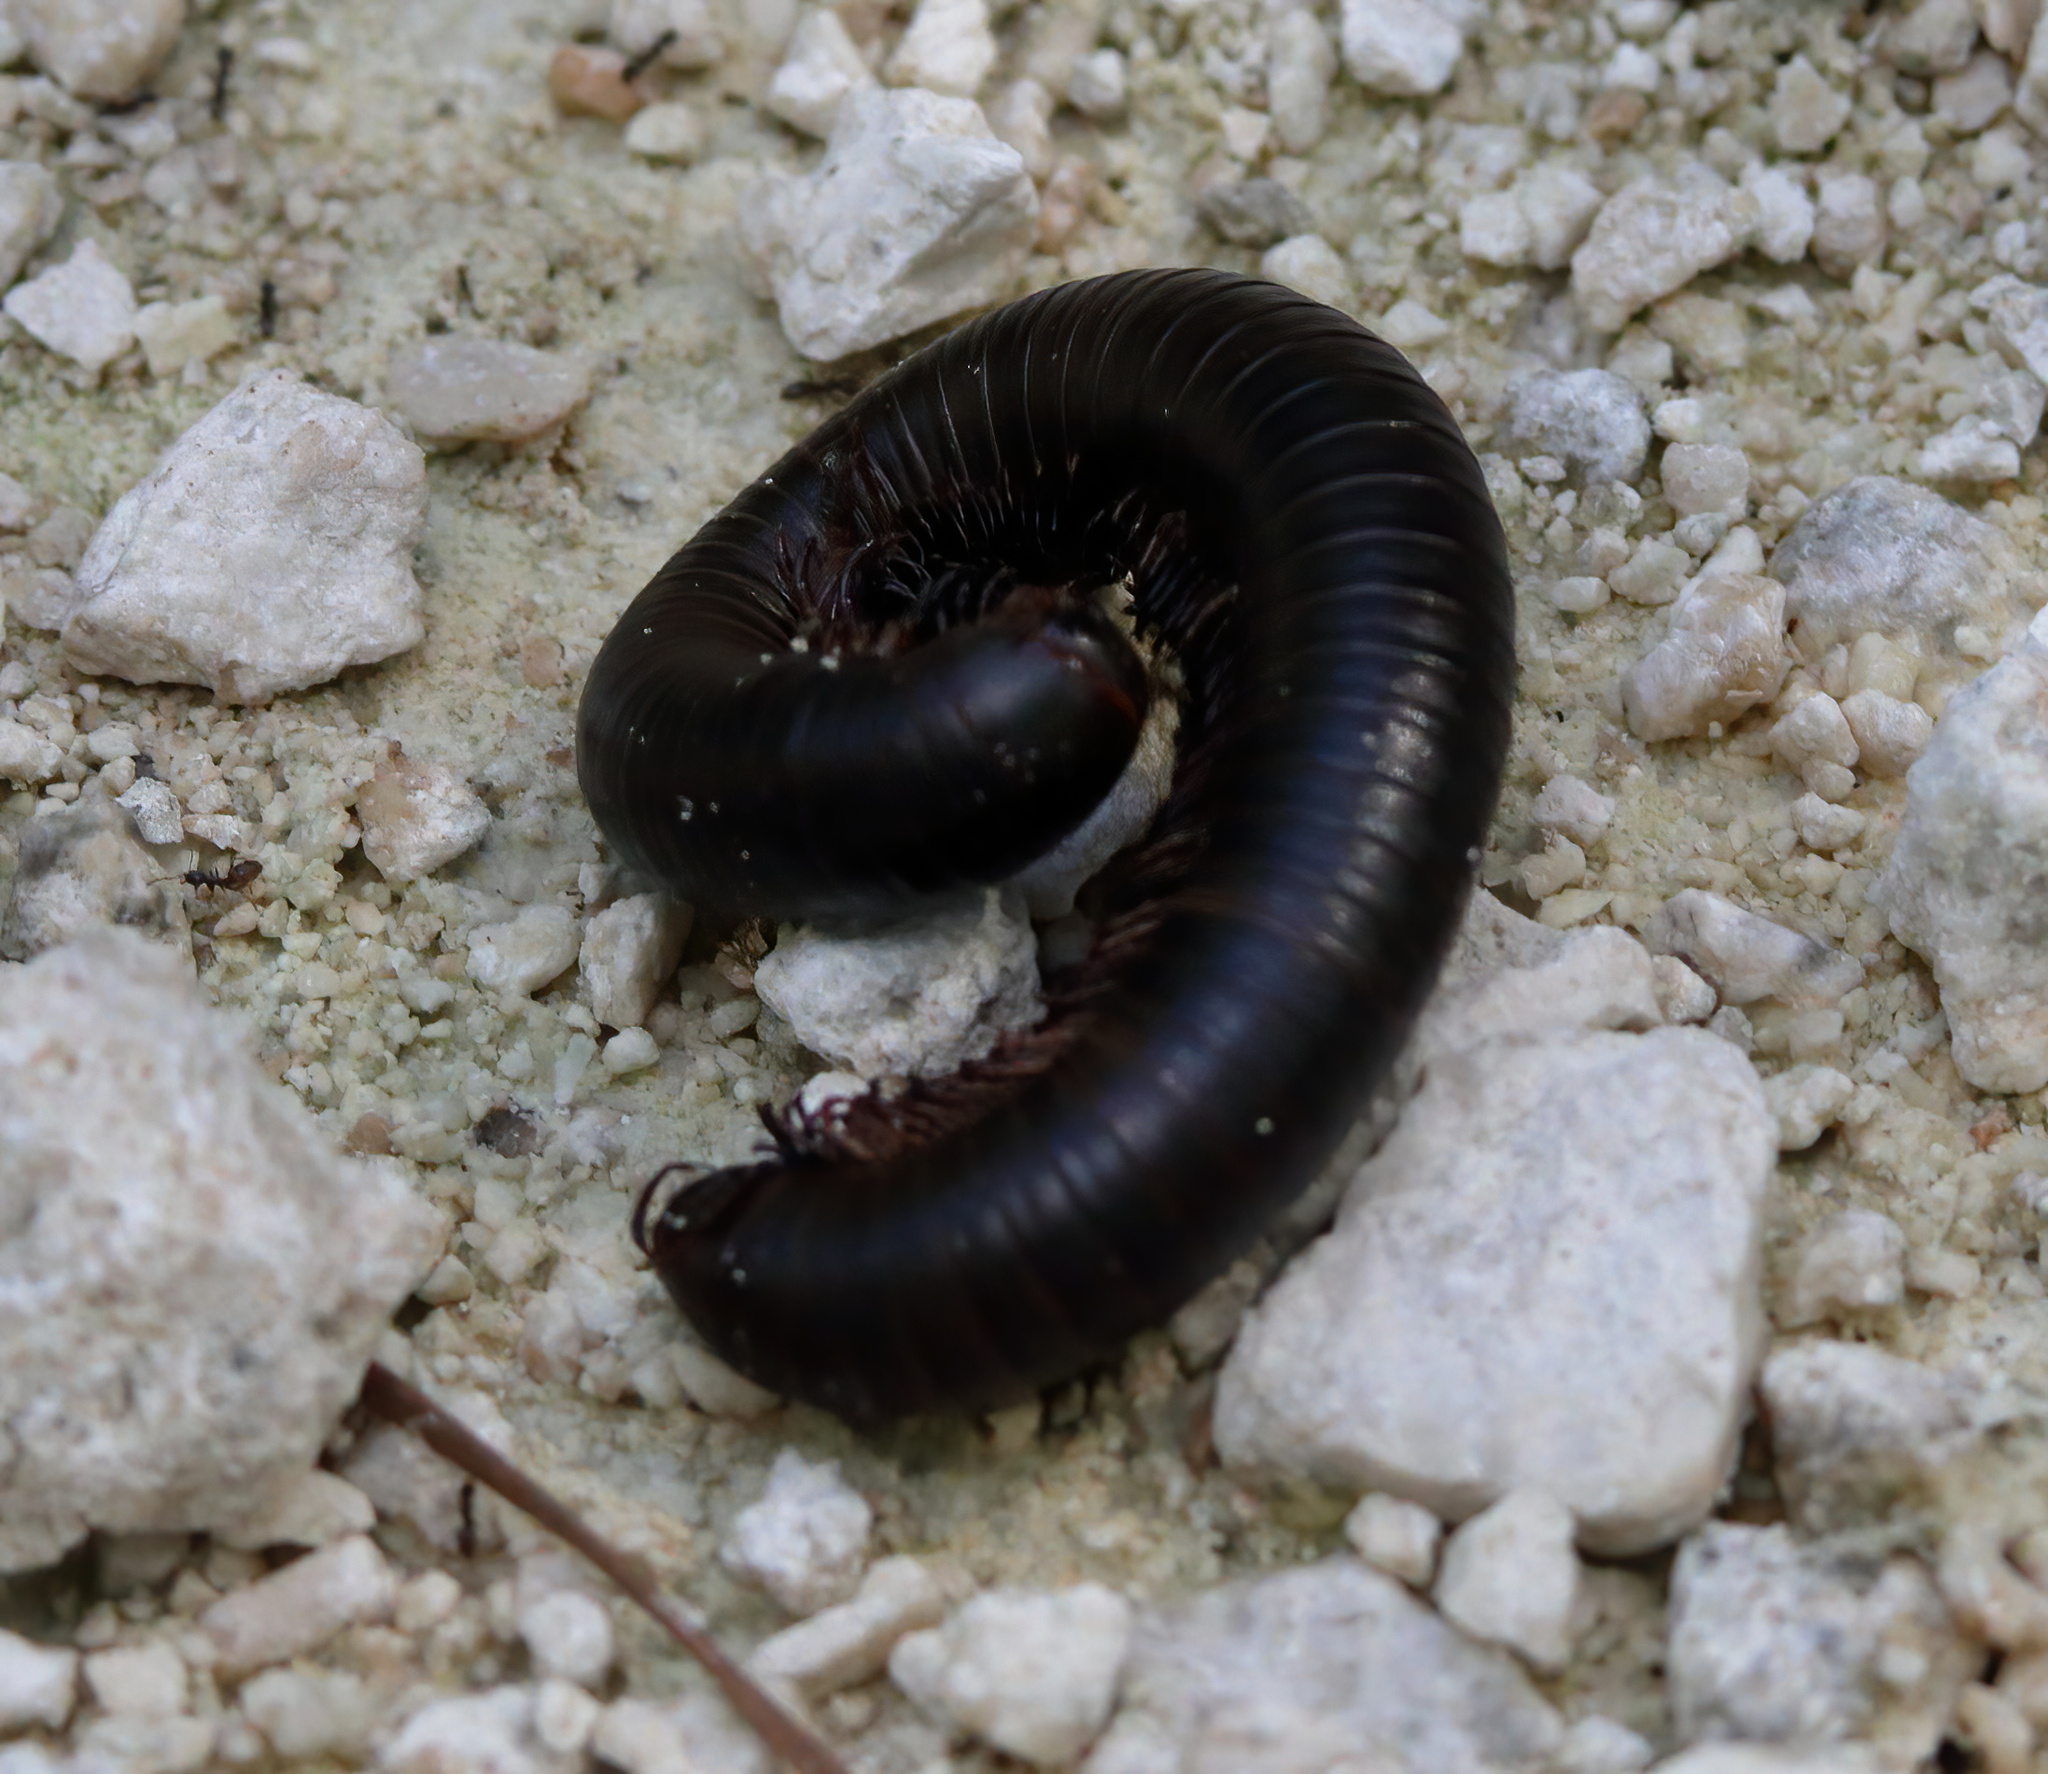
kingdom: Animalia
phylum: Arthropoda
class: Diplopoda
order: Spirobolida
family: Spirobolidae
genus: Narceus
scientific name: Narceus
